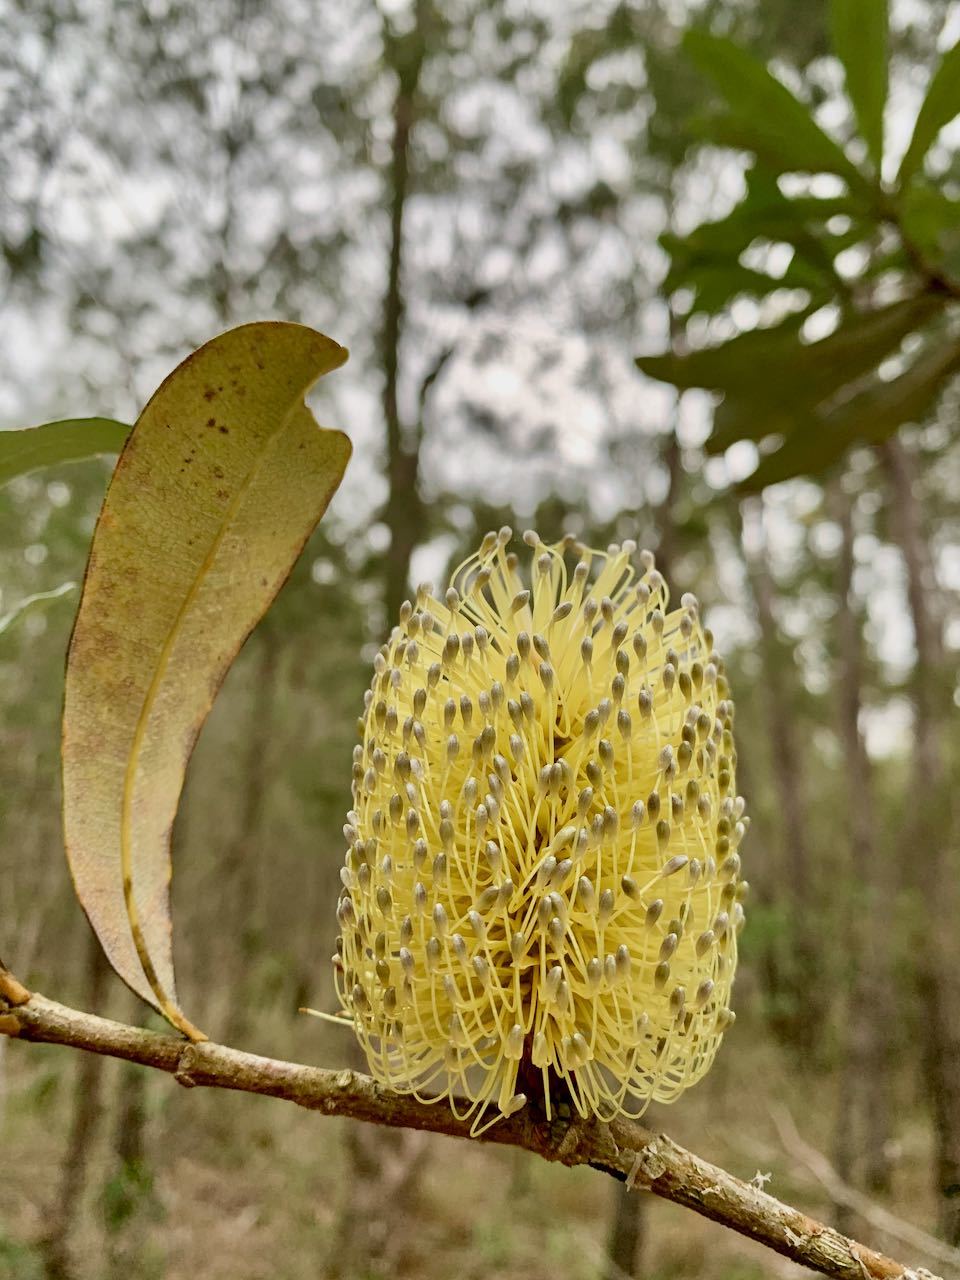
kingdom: Plantae
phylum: Tracheophyta
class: Magnoliopsida
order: Proteales
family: Proteaceae
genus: Banksia
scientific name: Banksia integrifolia
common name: White-honeysuckle
